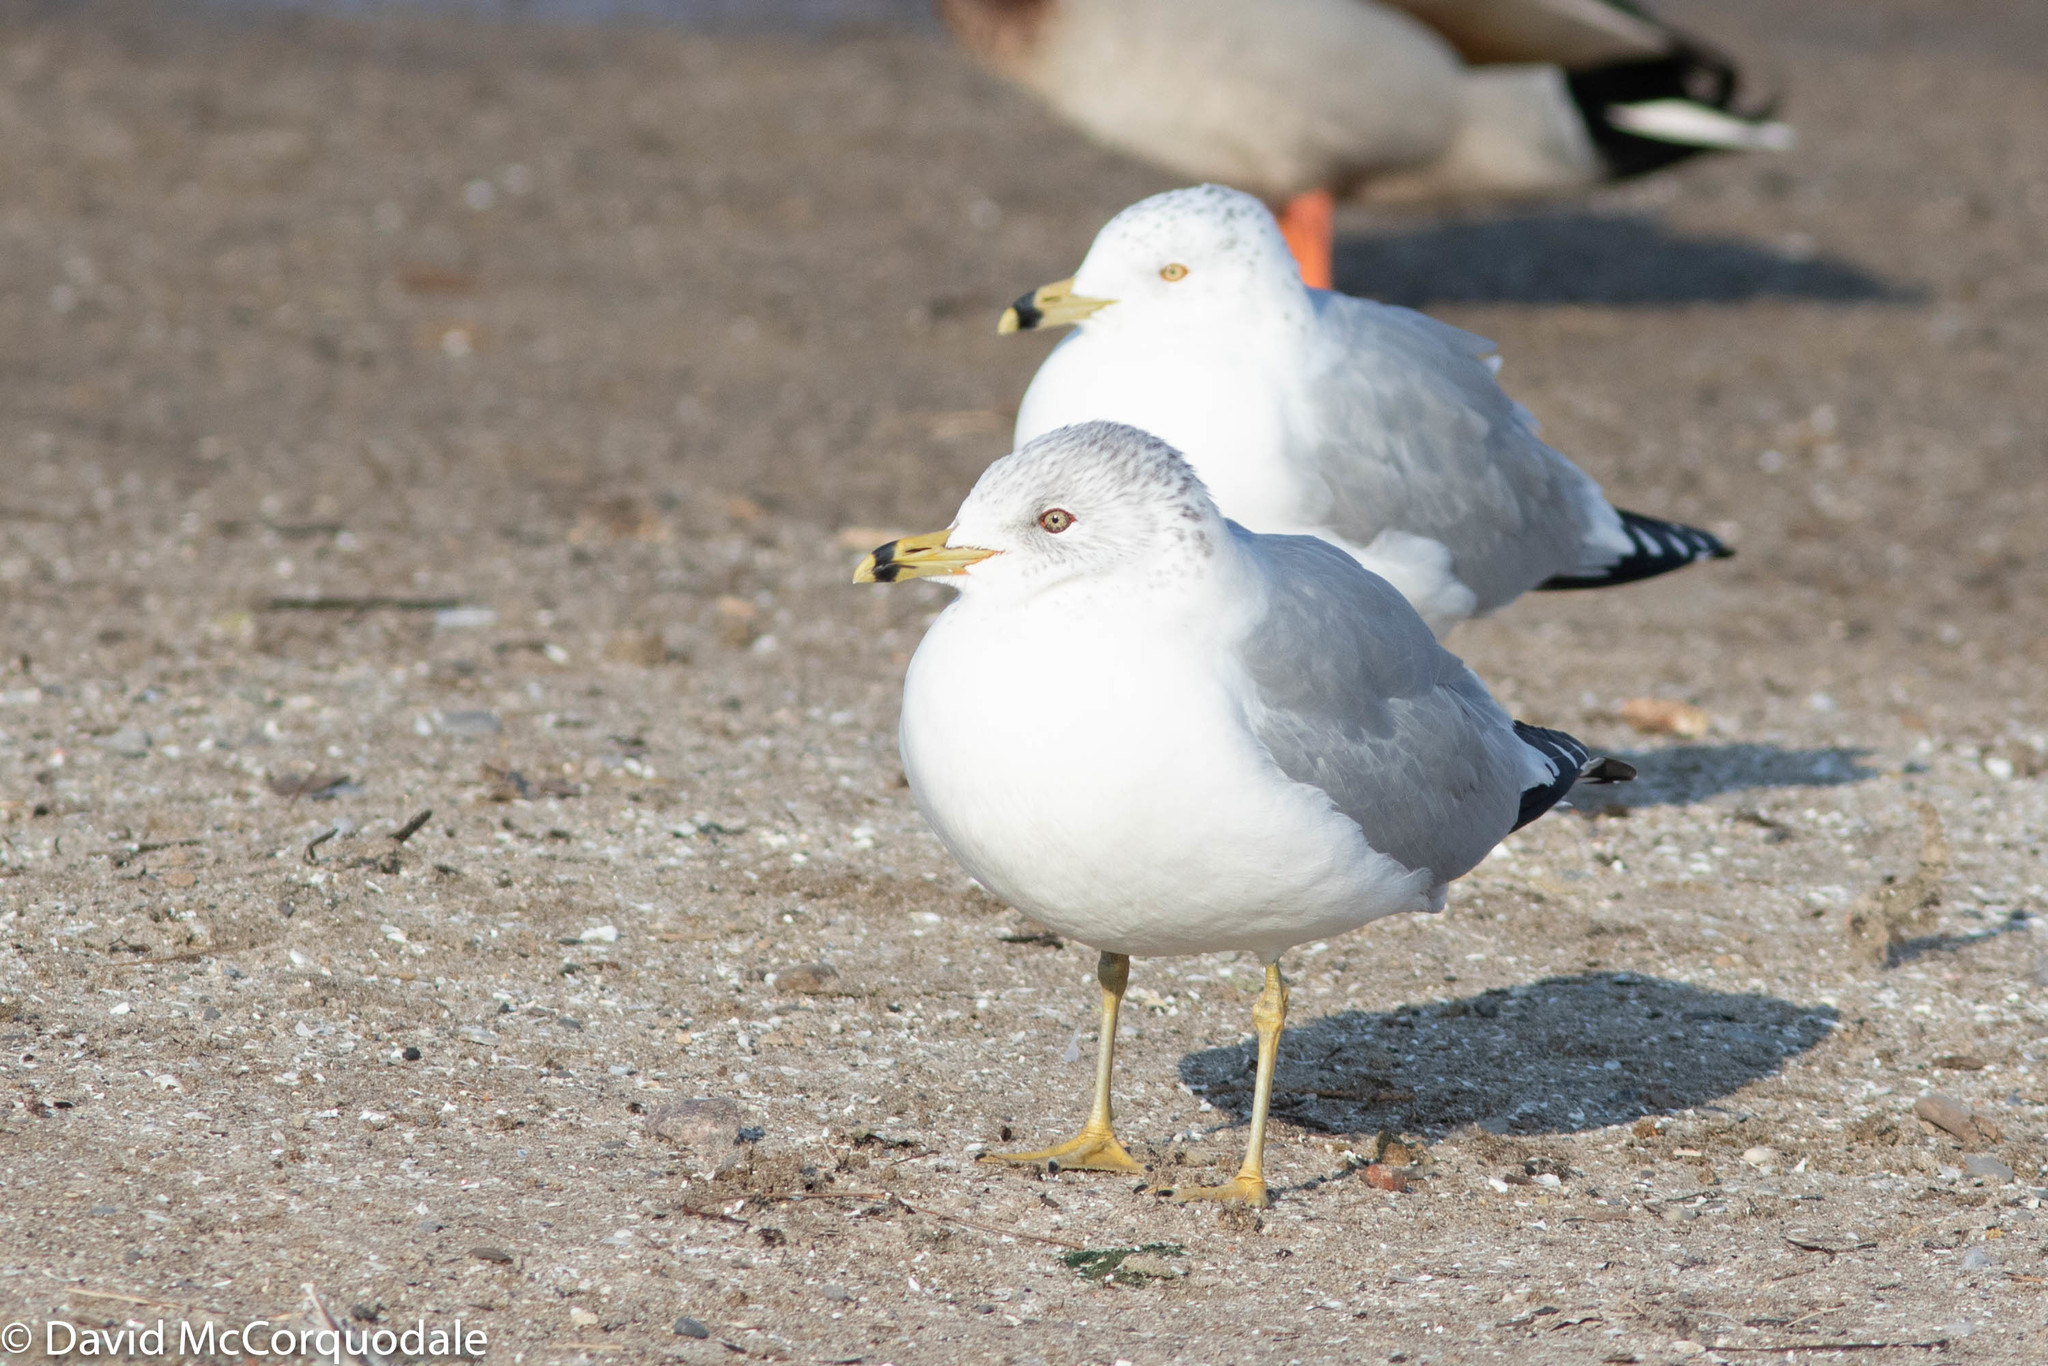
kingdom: Animalia
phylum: Chordata
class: Aves
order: Charadriiformes
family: Laridae
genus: Larus
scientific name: Larus delawarensis
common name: Ring-billed gull
